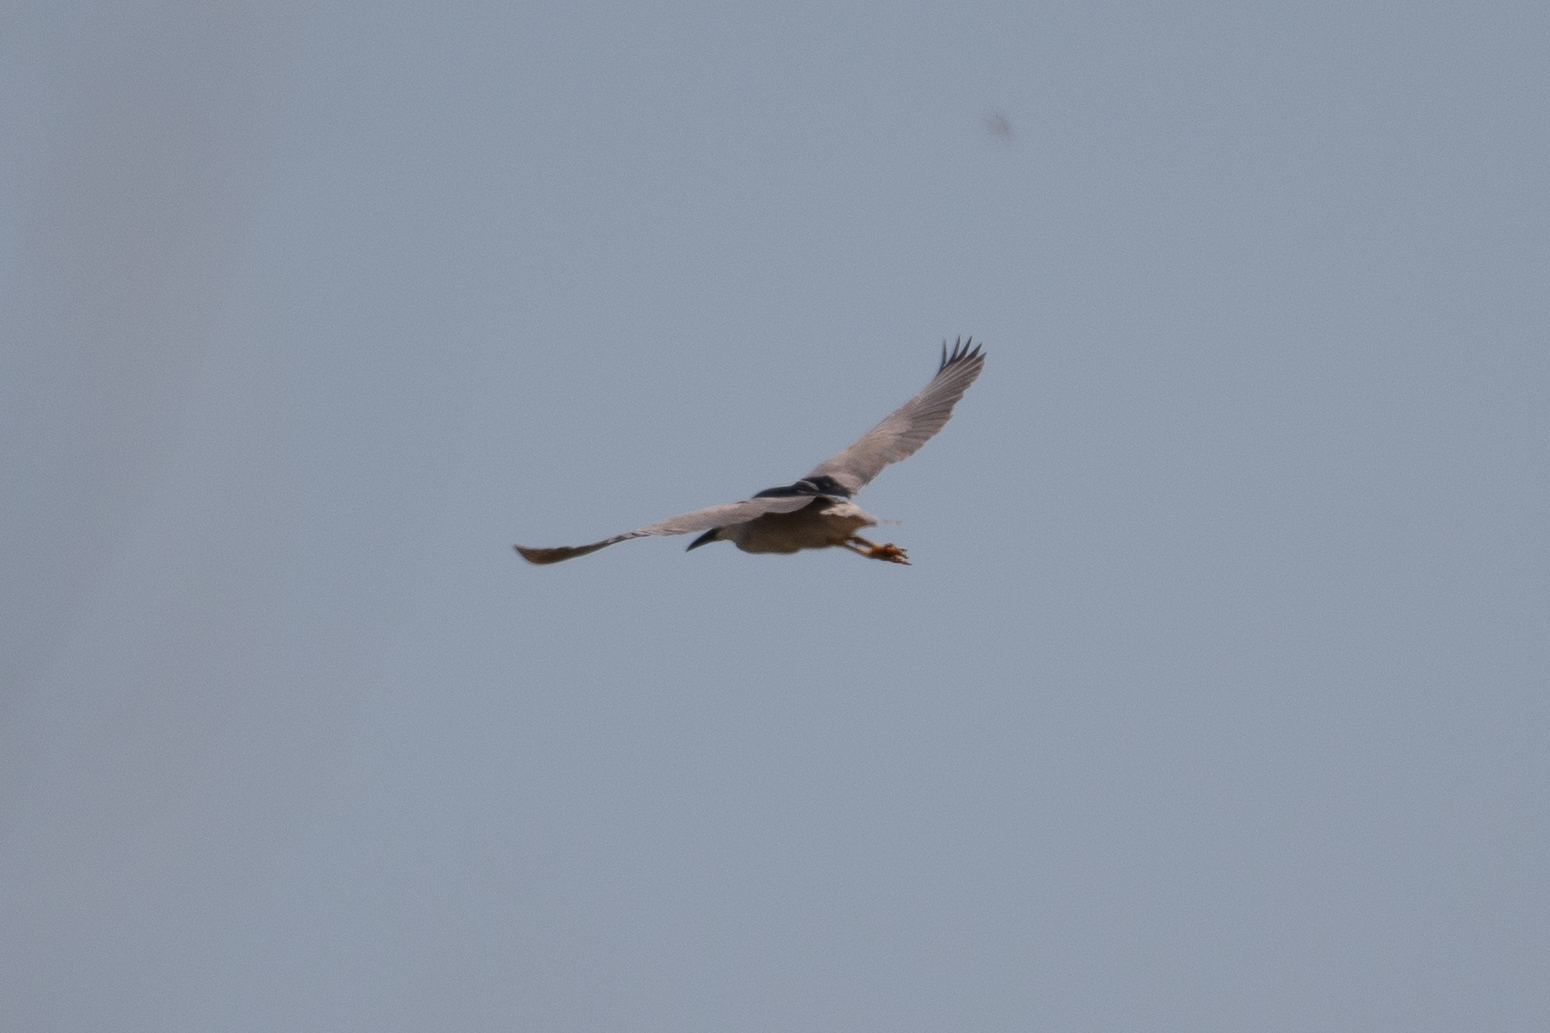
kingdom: Animalia
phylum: Chordata
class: Aves
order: Pelecaniformes
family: Ardeidae
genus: Nycticorax
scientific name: Nycticorax nycticorax
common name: Black-crowned night heron
